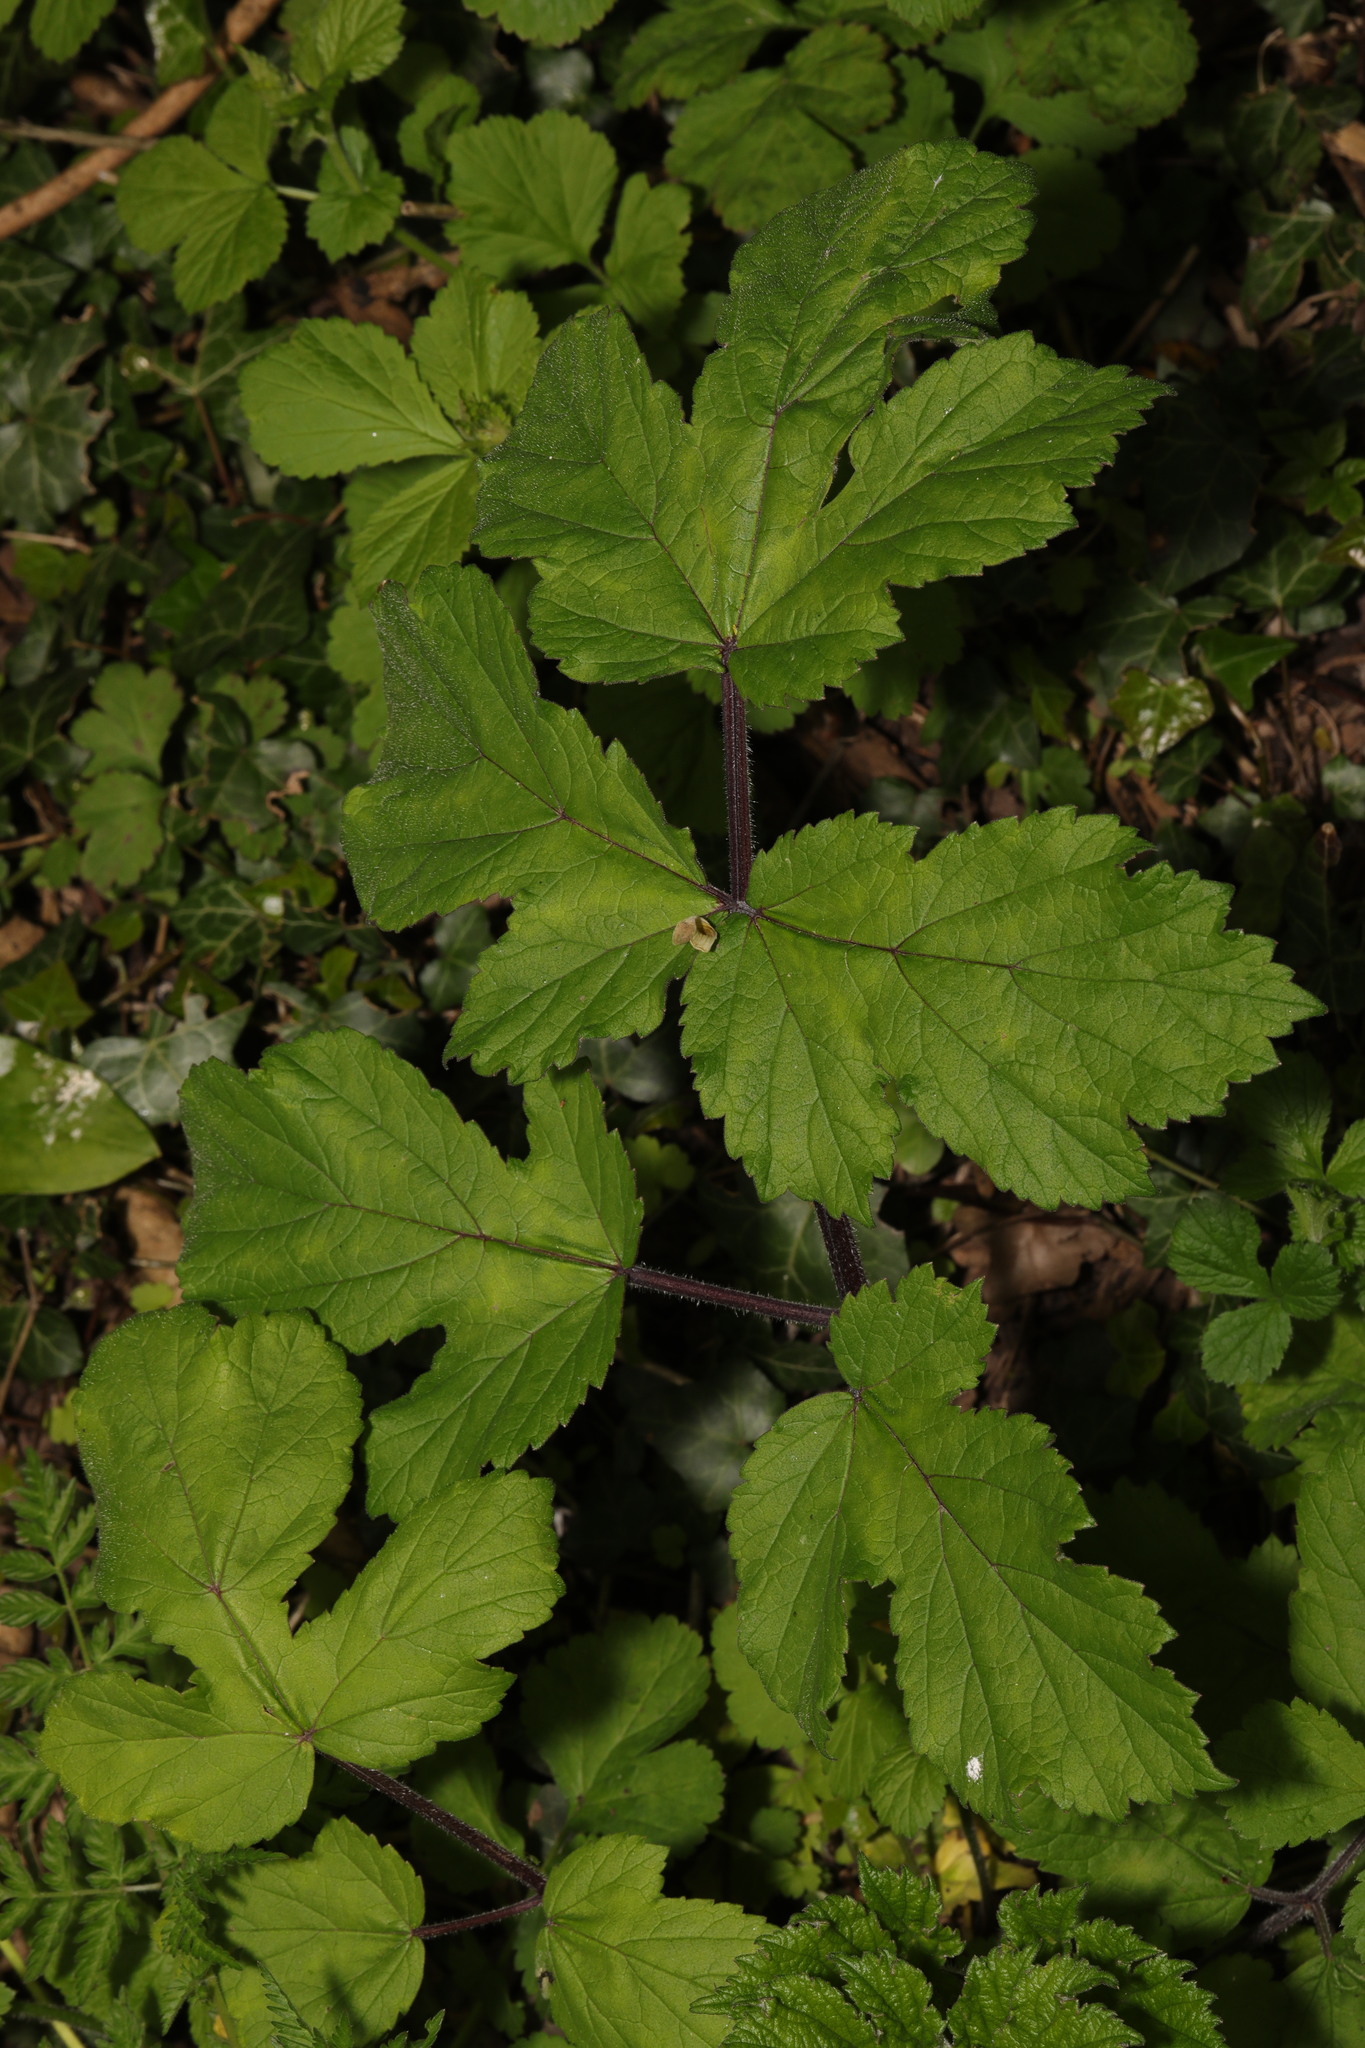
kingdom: Plantae
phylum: Tracheophyta
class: Magnoliopsida
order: Apiales
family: Apiaceae
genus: Heracleum
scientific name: Heracleum sphondylium
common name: Hogweed
